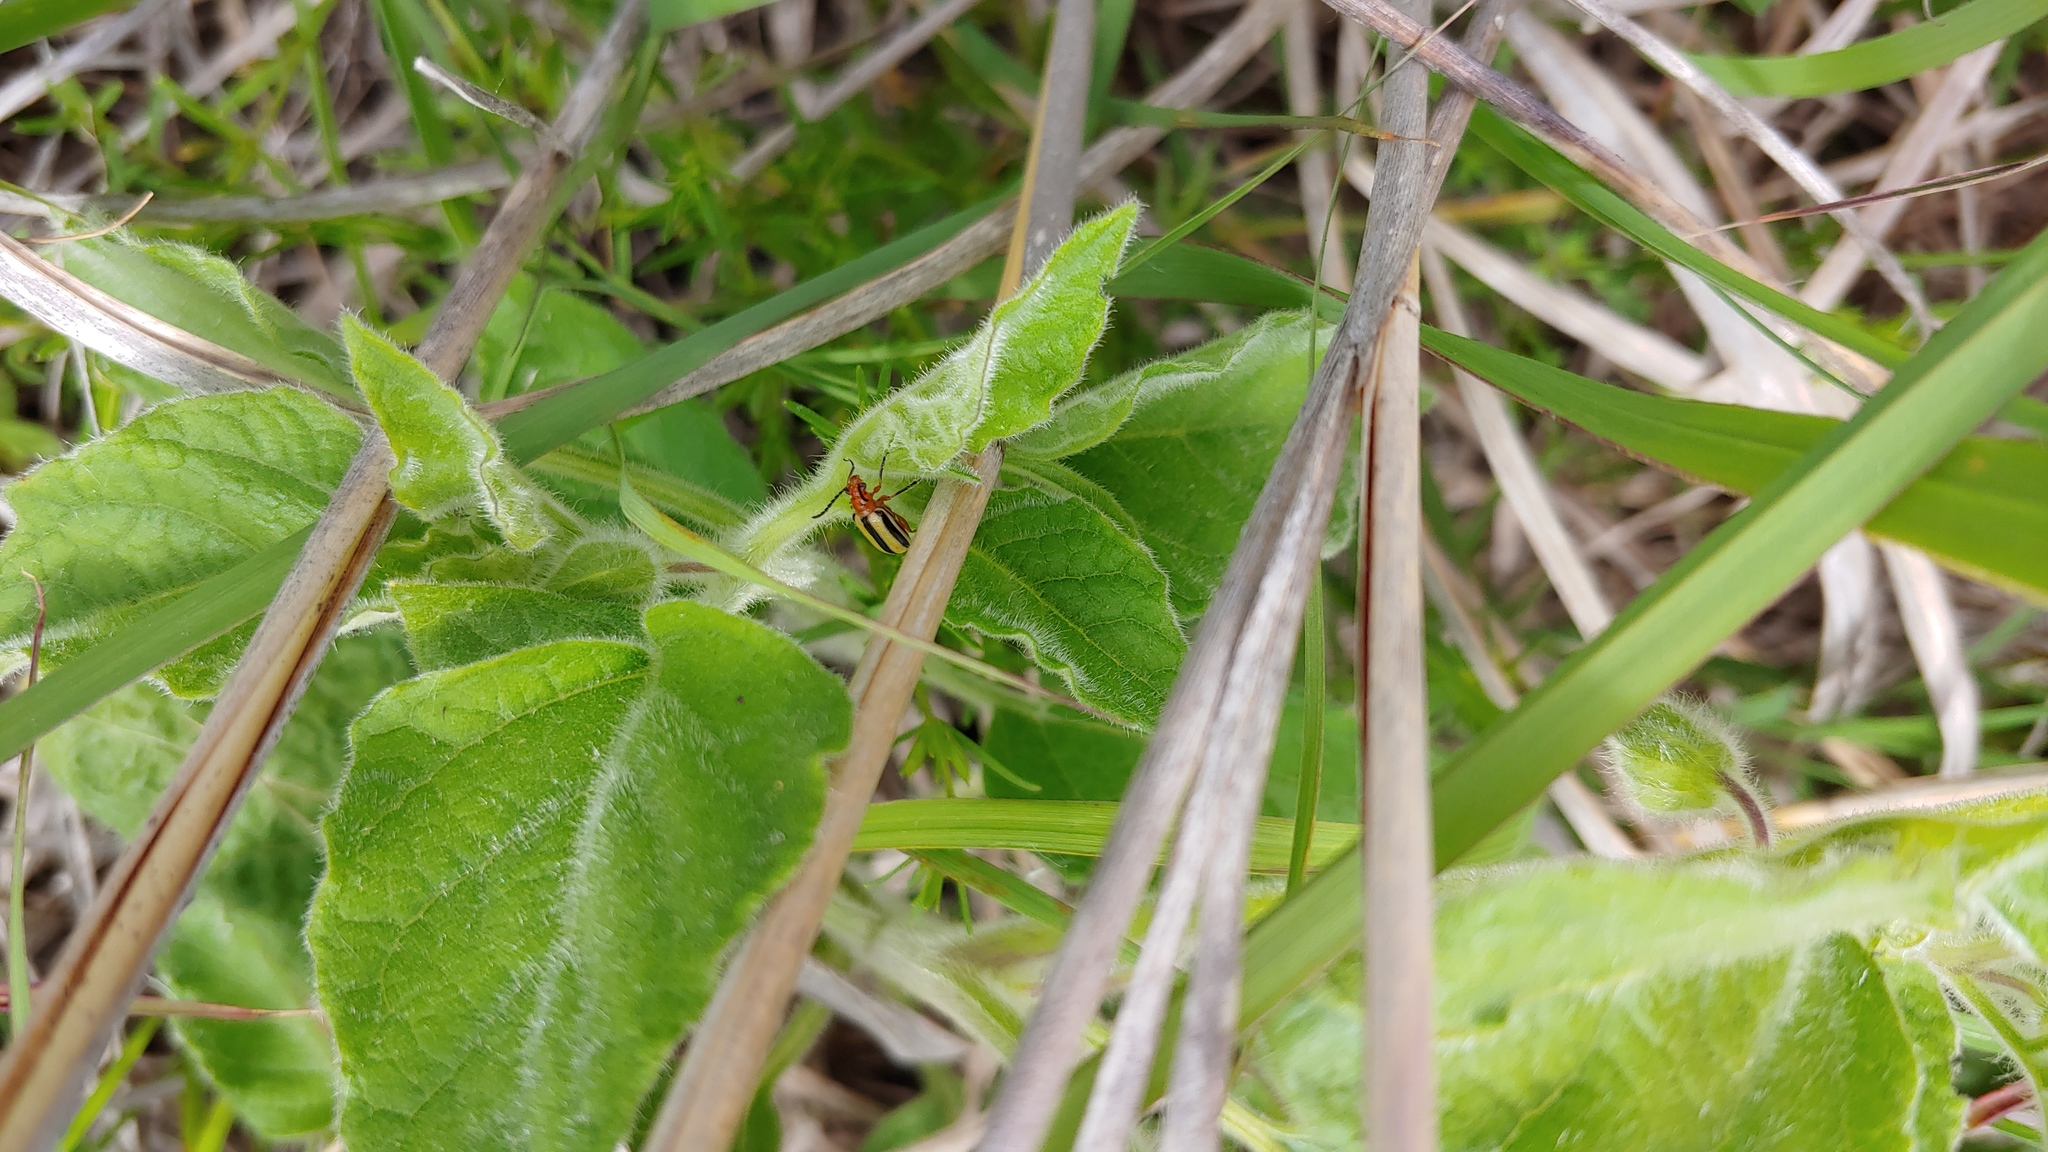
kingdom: Animalia
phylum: Arthropoda
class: Insecta
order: Coleoptera
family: Chrysomelidae
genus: Lema
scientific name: Lema daturaphila
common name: Leaf beetle
